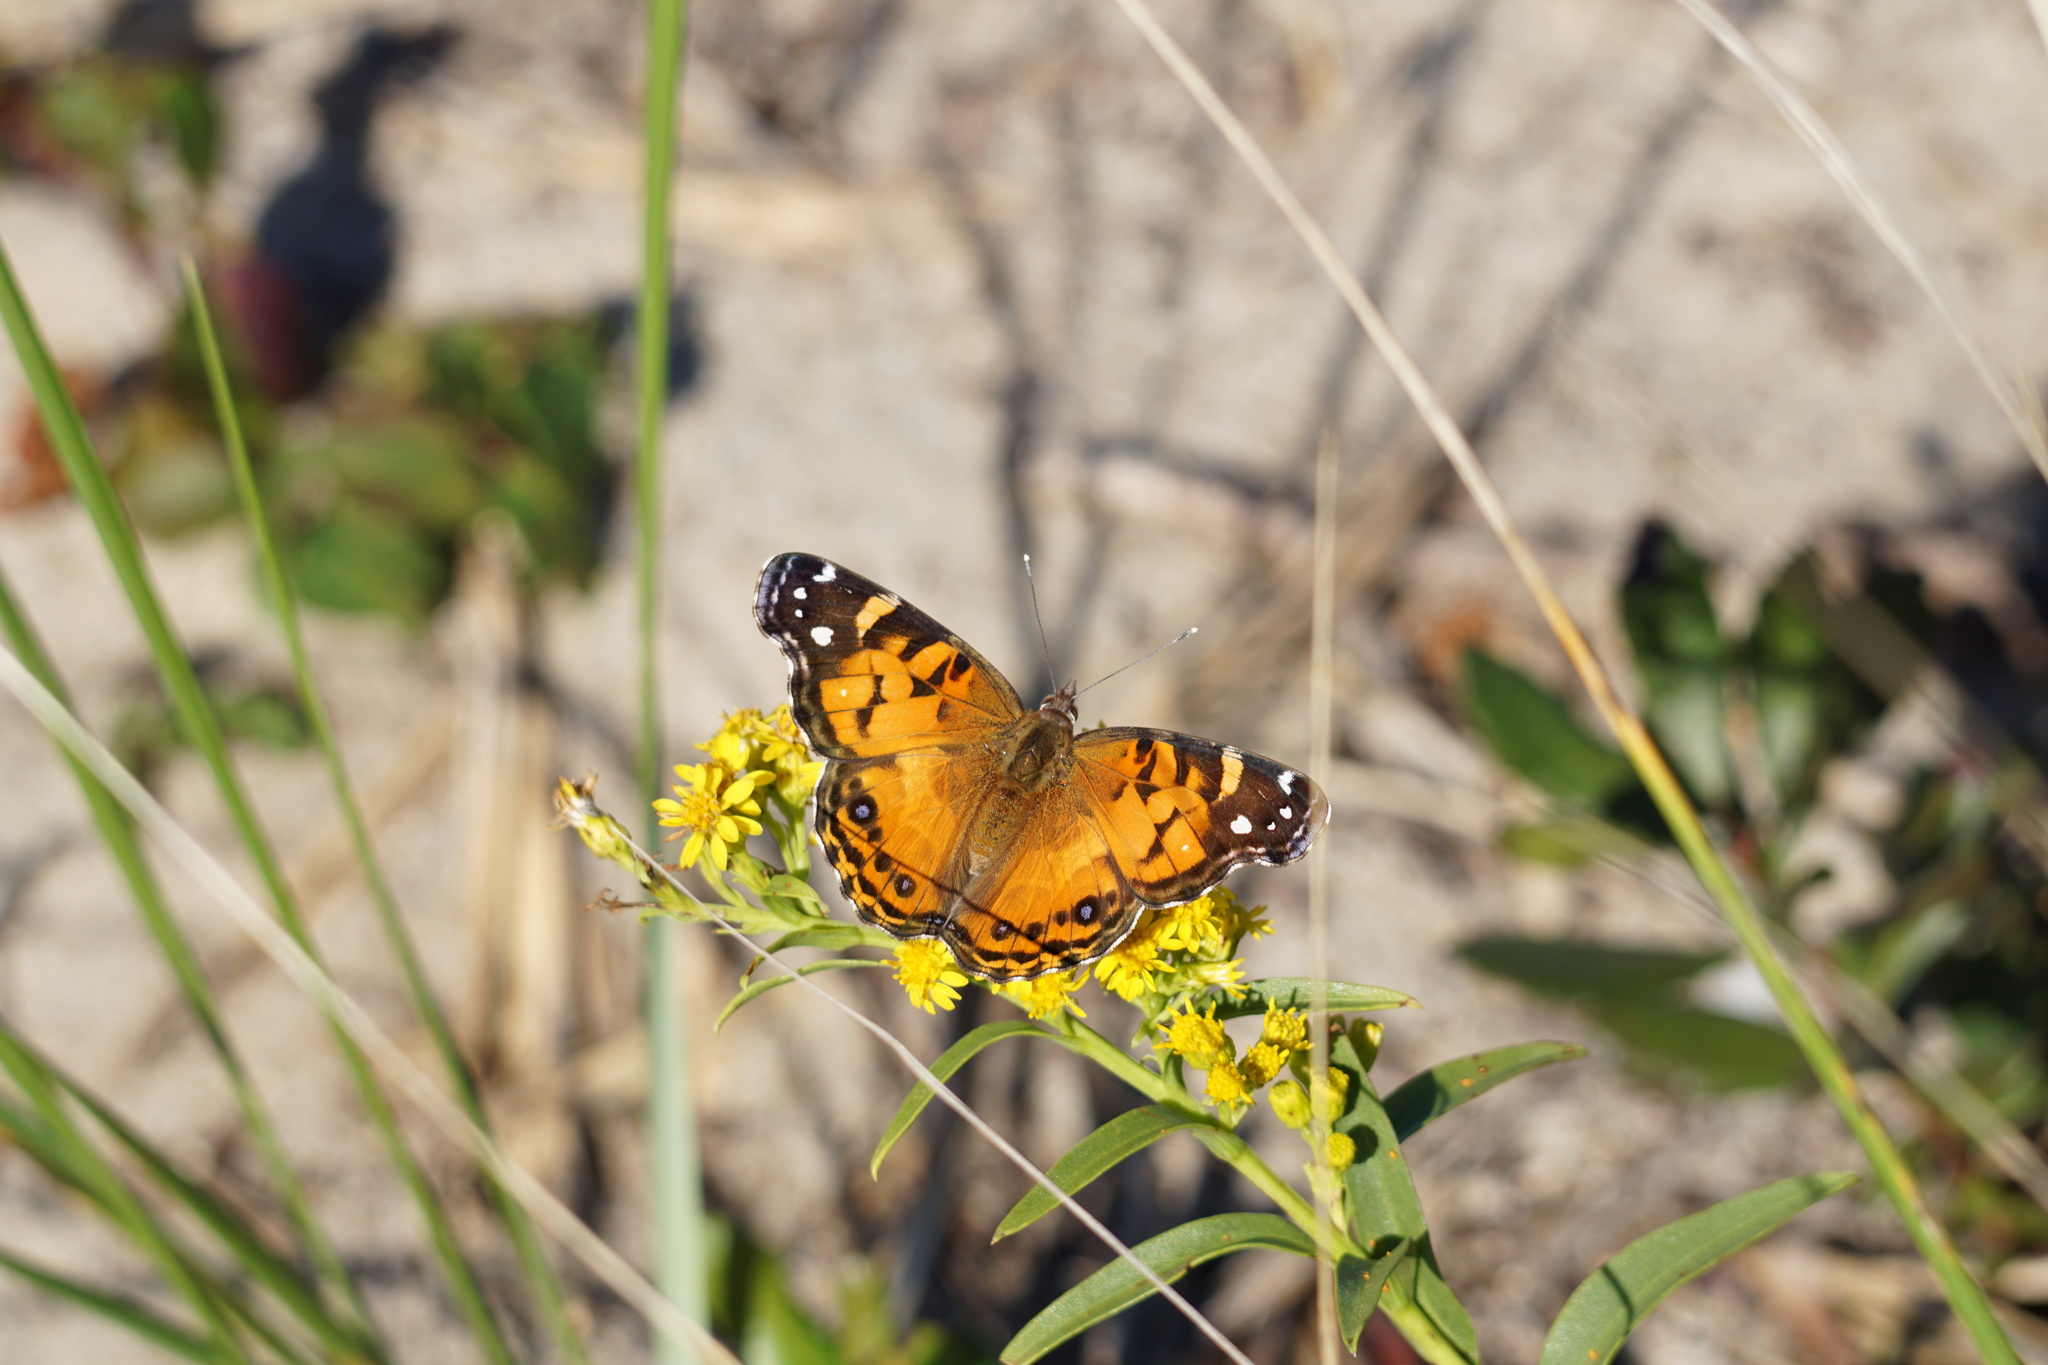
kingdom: Animalia
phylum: Arthropoda
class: Insecta
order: Lepidoptera
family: Nymphalidae
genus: Vanessa
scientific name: Vanessa virginiensis
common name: American lady
